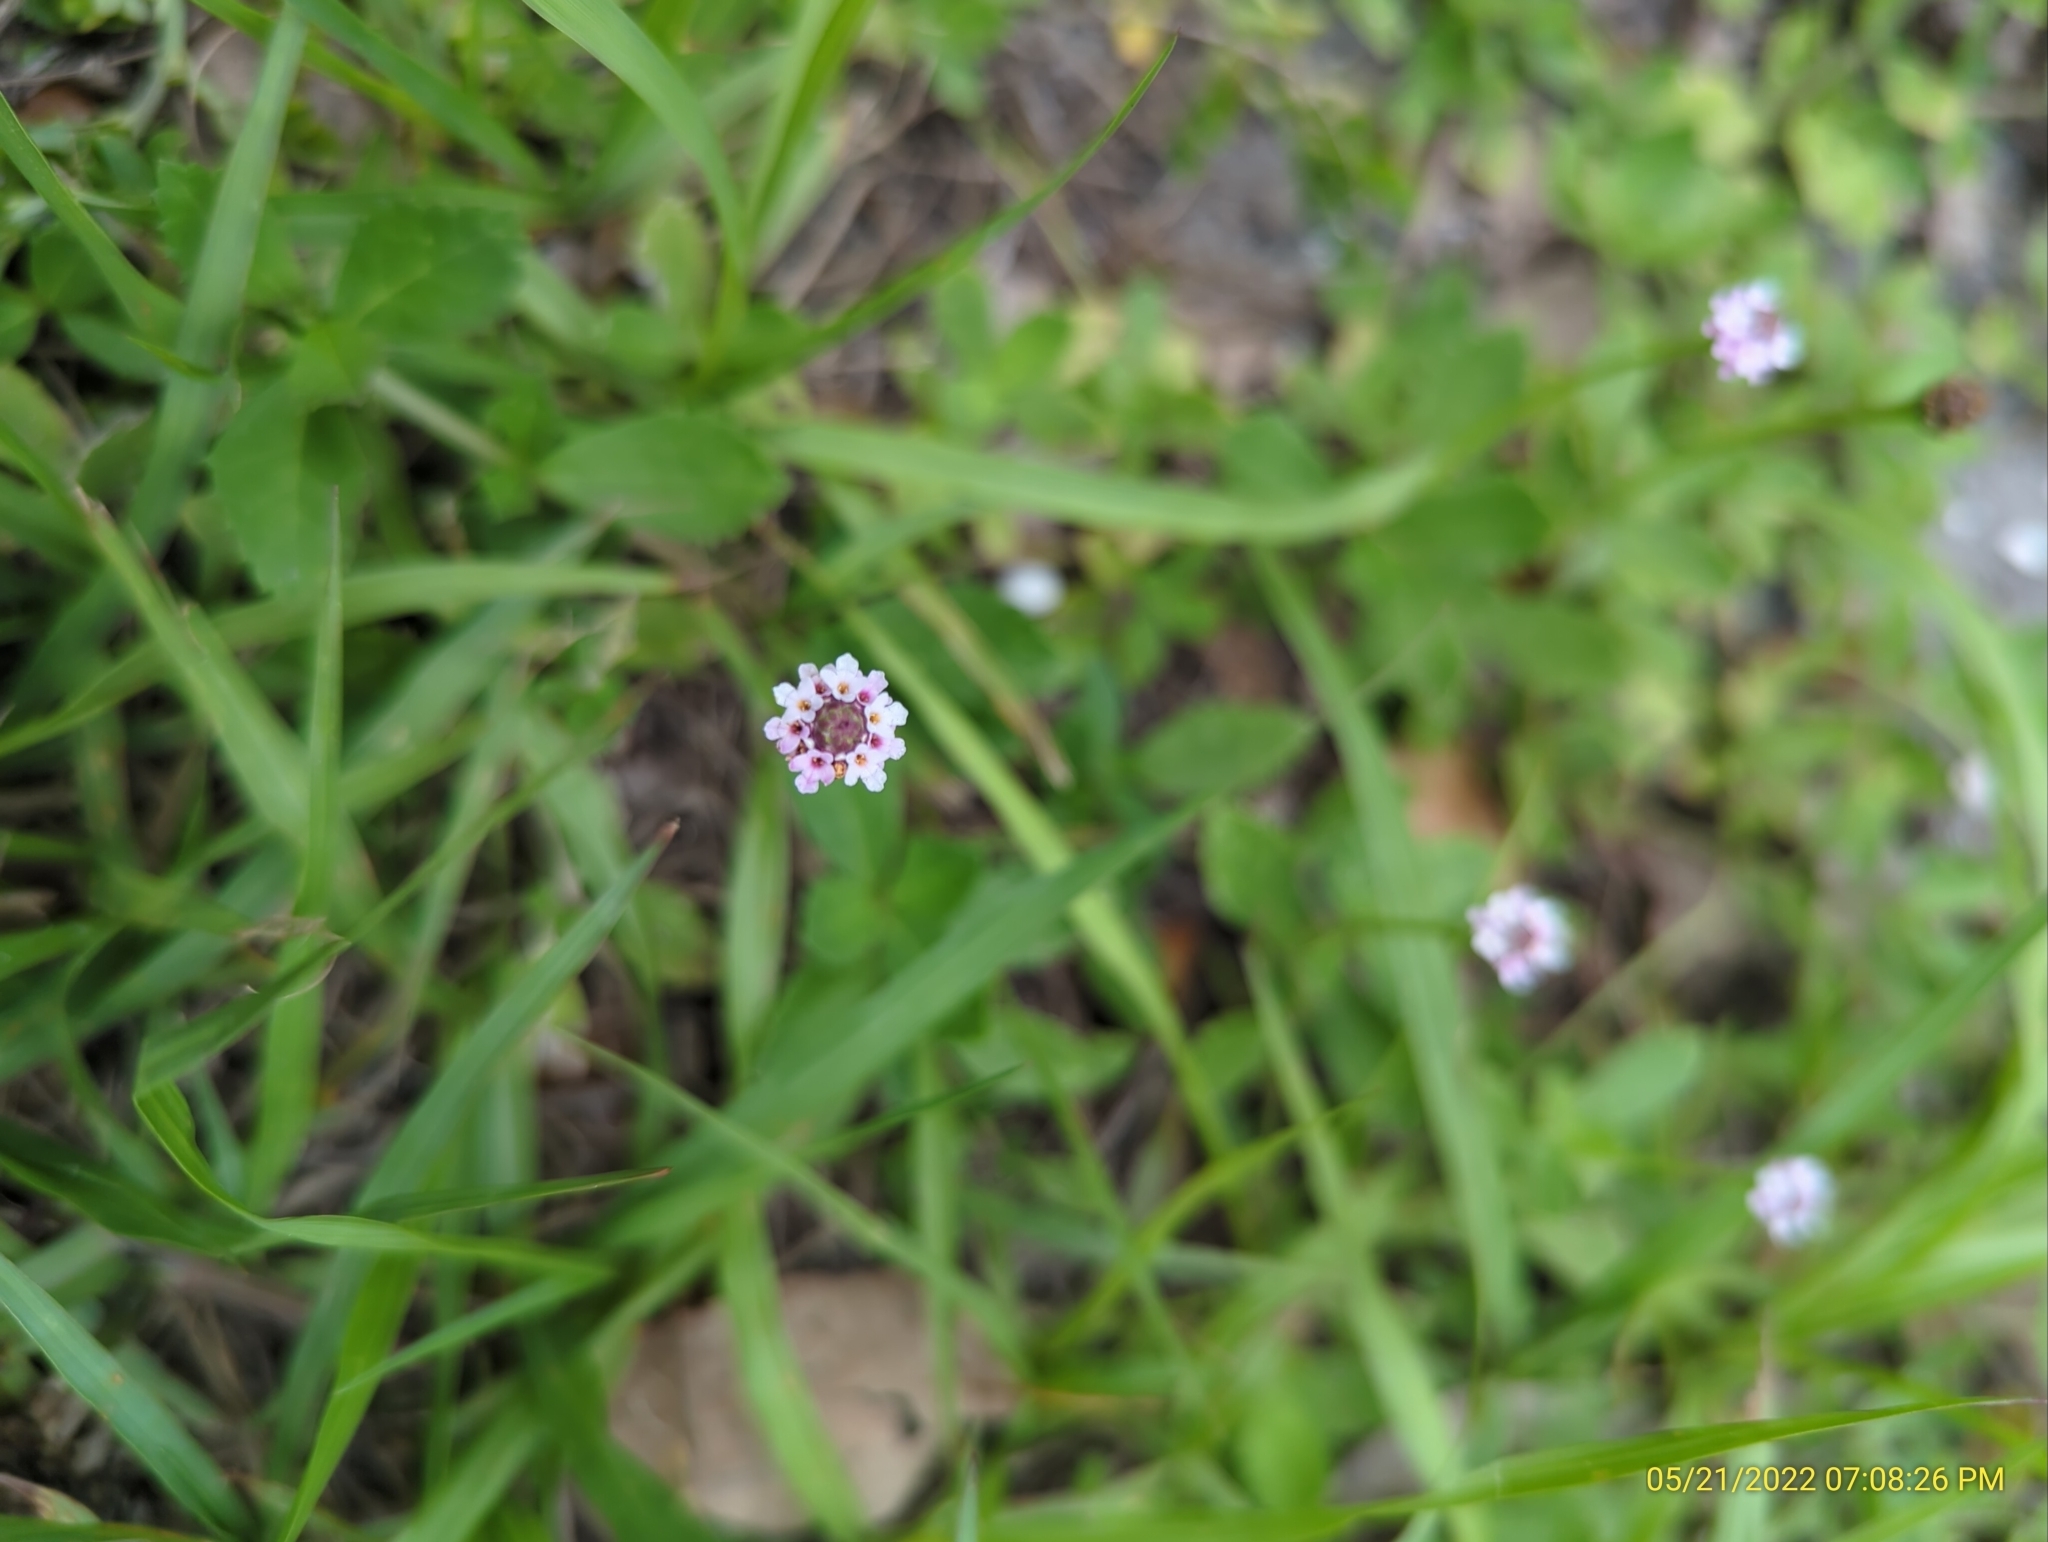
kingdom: Plantae
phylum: Tracheophyta
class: Magnoliopsida
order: Lamiales
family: Verbenaceae
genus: Phyla
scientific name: Phyla nodiflora
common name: Frogfruit
